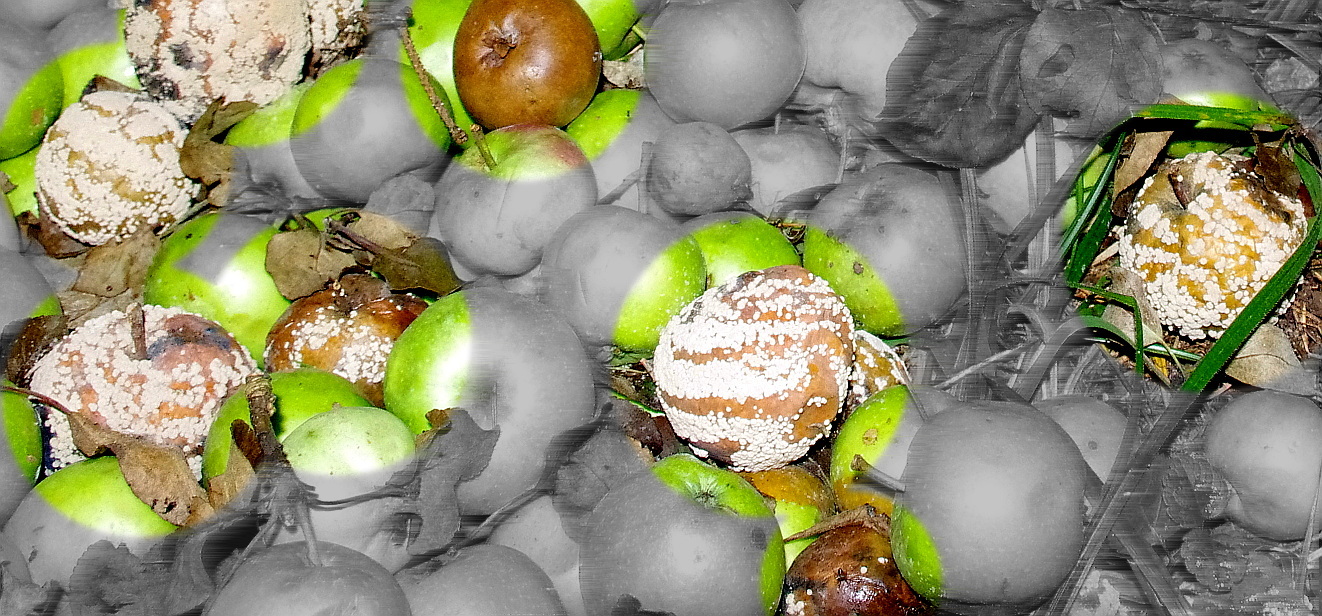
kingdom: Fungi
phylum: Ascomycota
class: Leotiomycetes
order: Helotiales
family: Sclerotiniaceae
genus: Monilinia
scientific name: Monilinia fructigena
